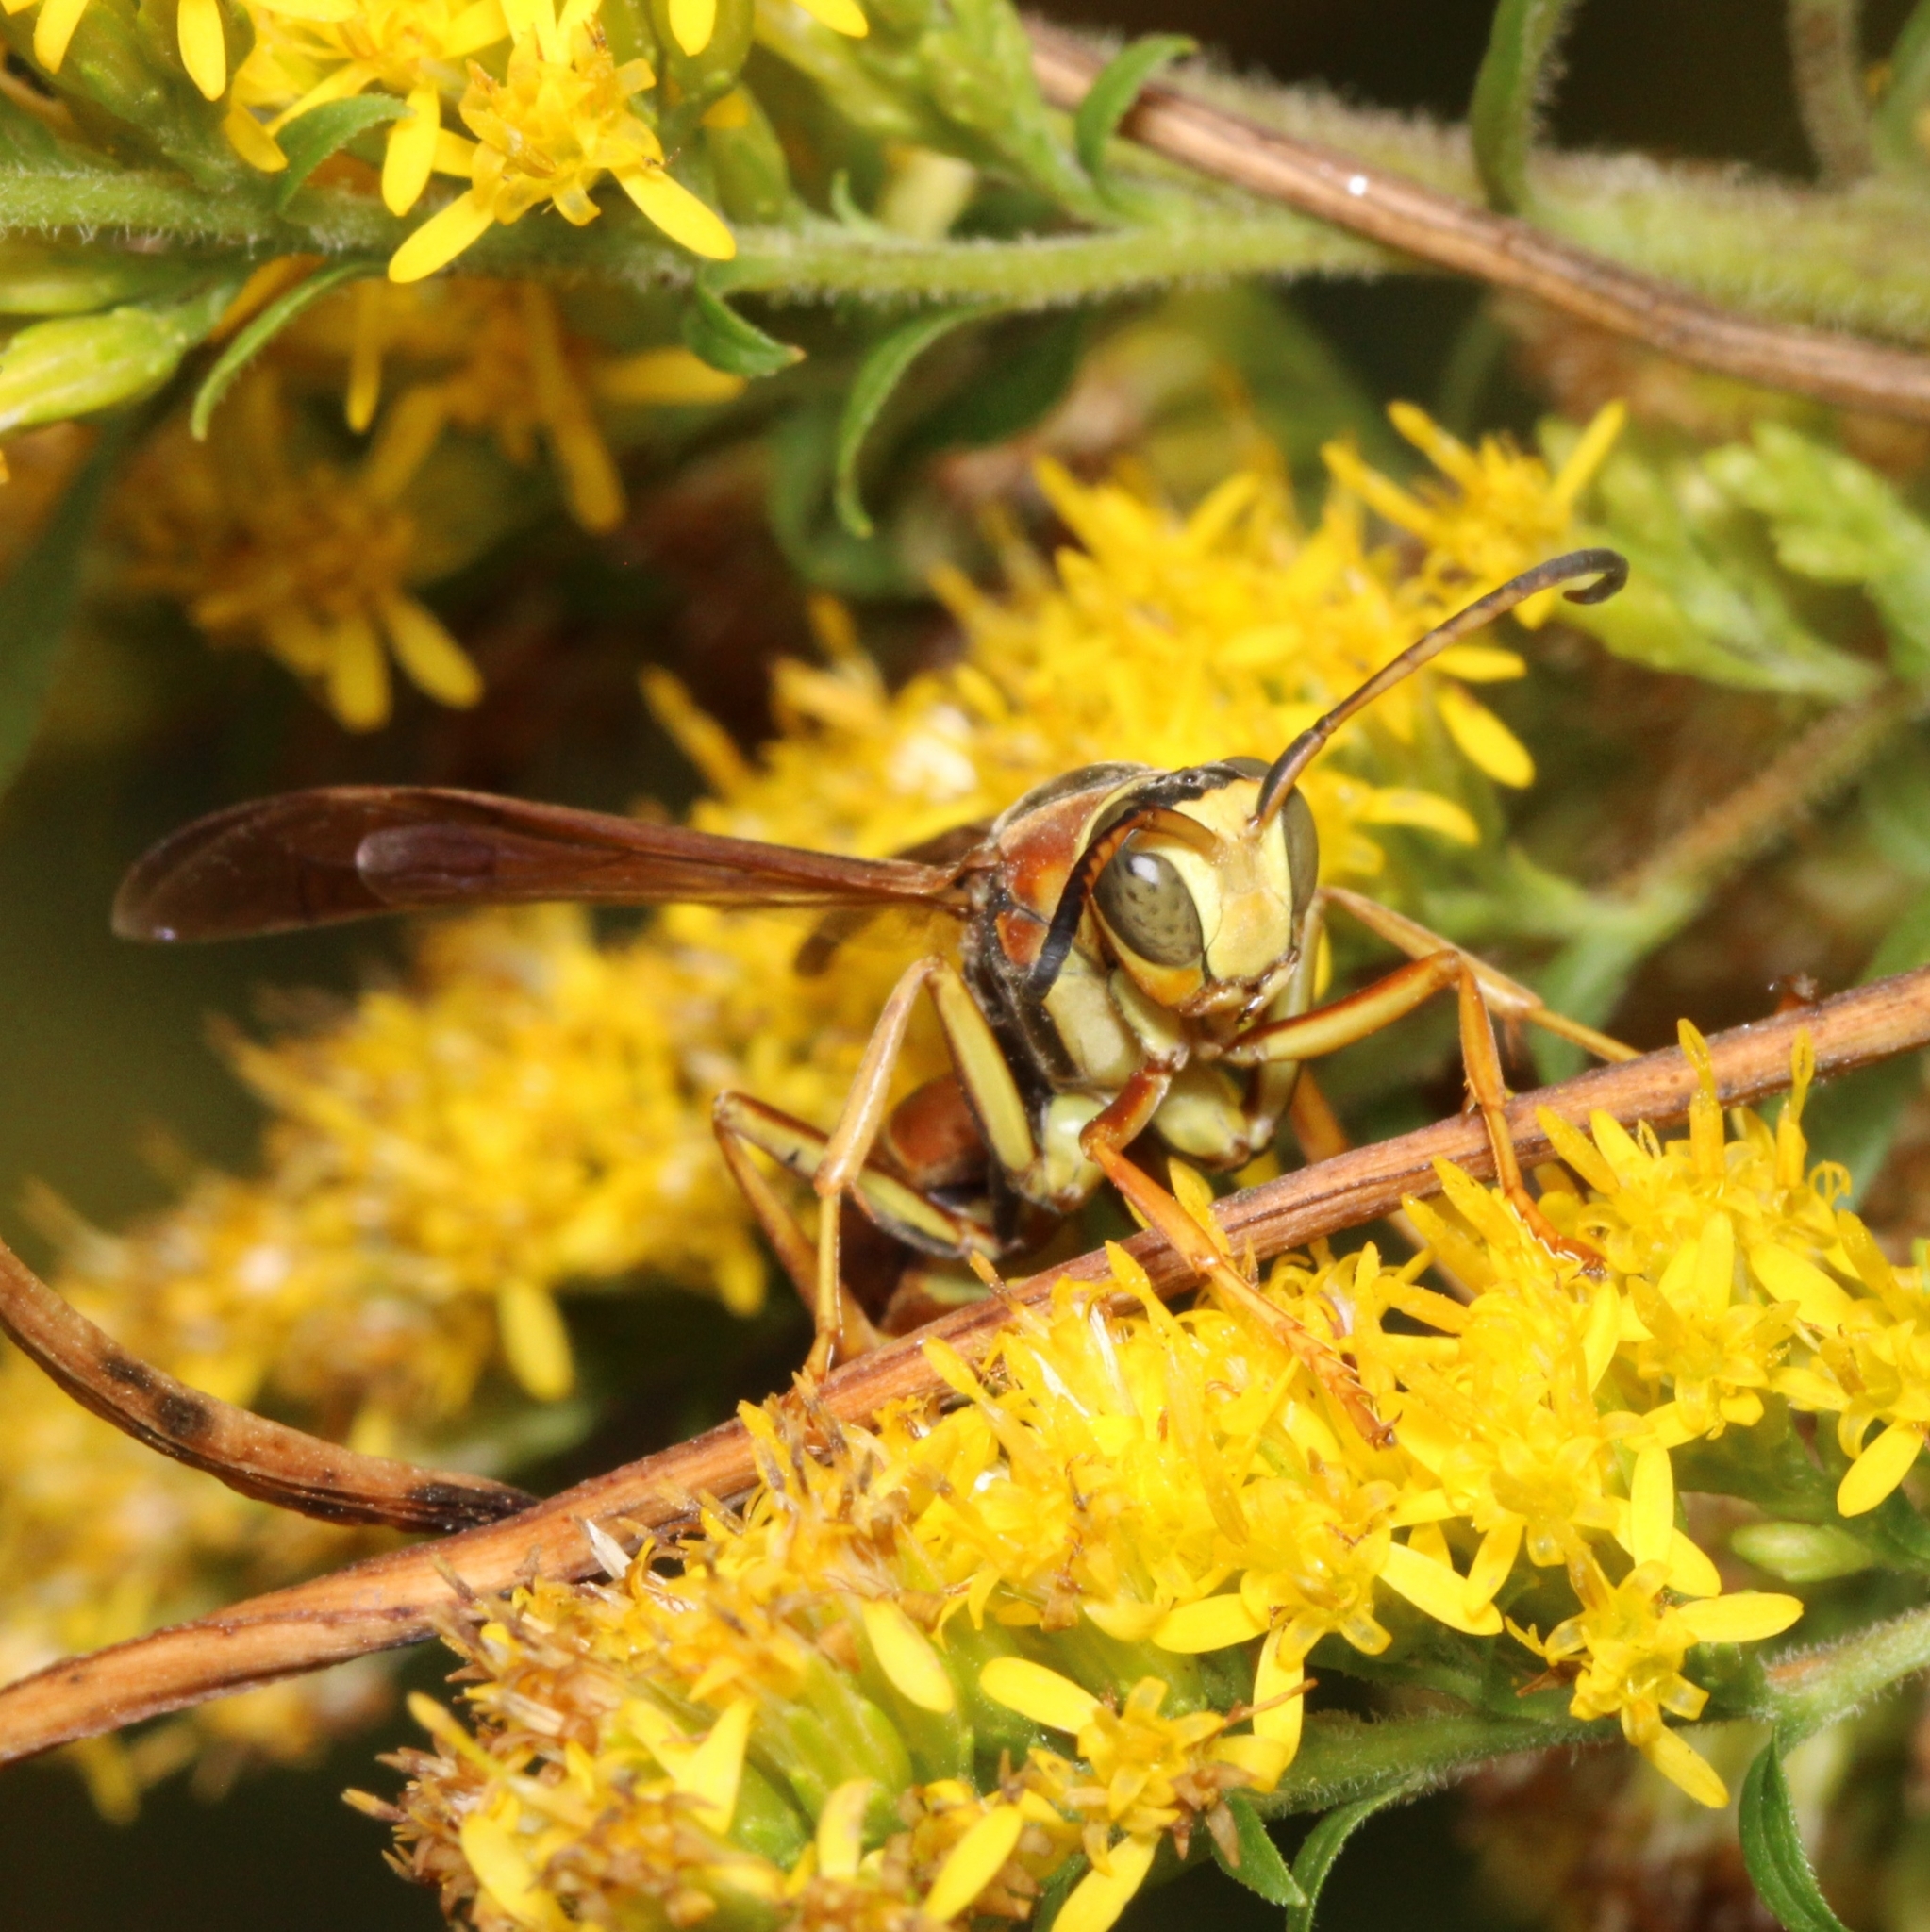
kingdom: Animalia
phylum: Arthropoda
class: Insecta
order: Hymenoptera
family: Eumenidae
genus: Polistes
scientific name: Polistes metricus
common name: Metric paper wasp
